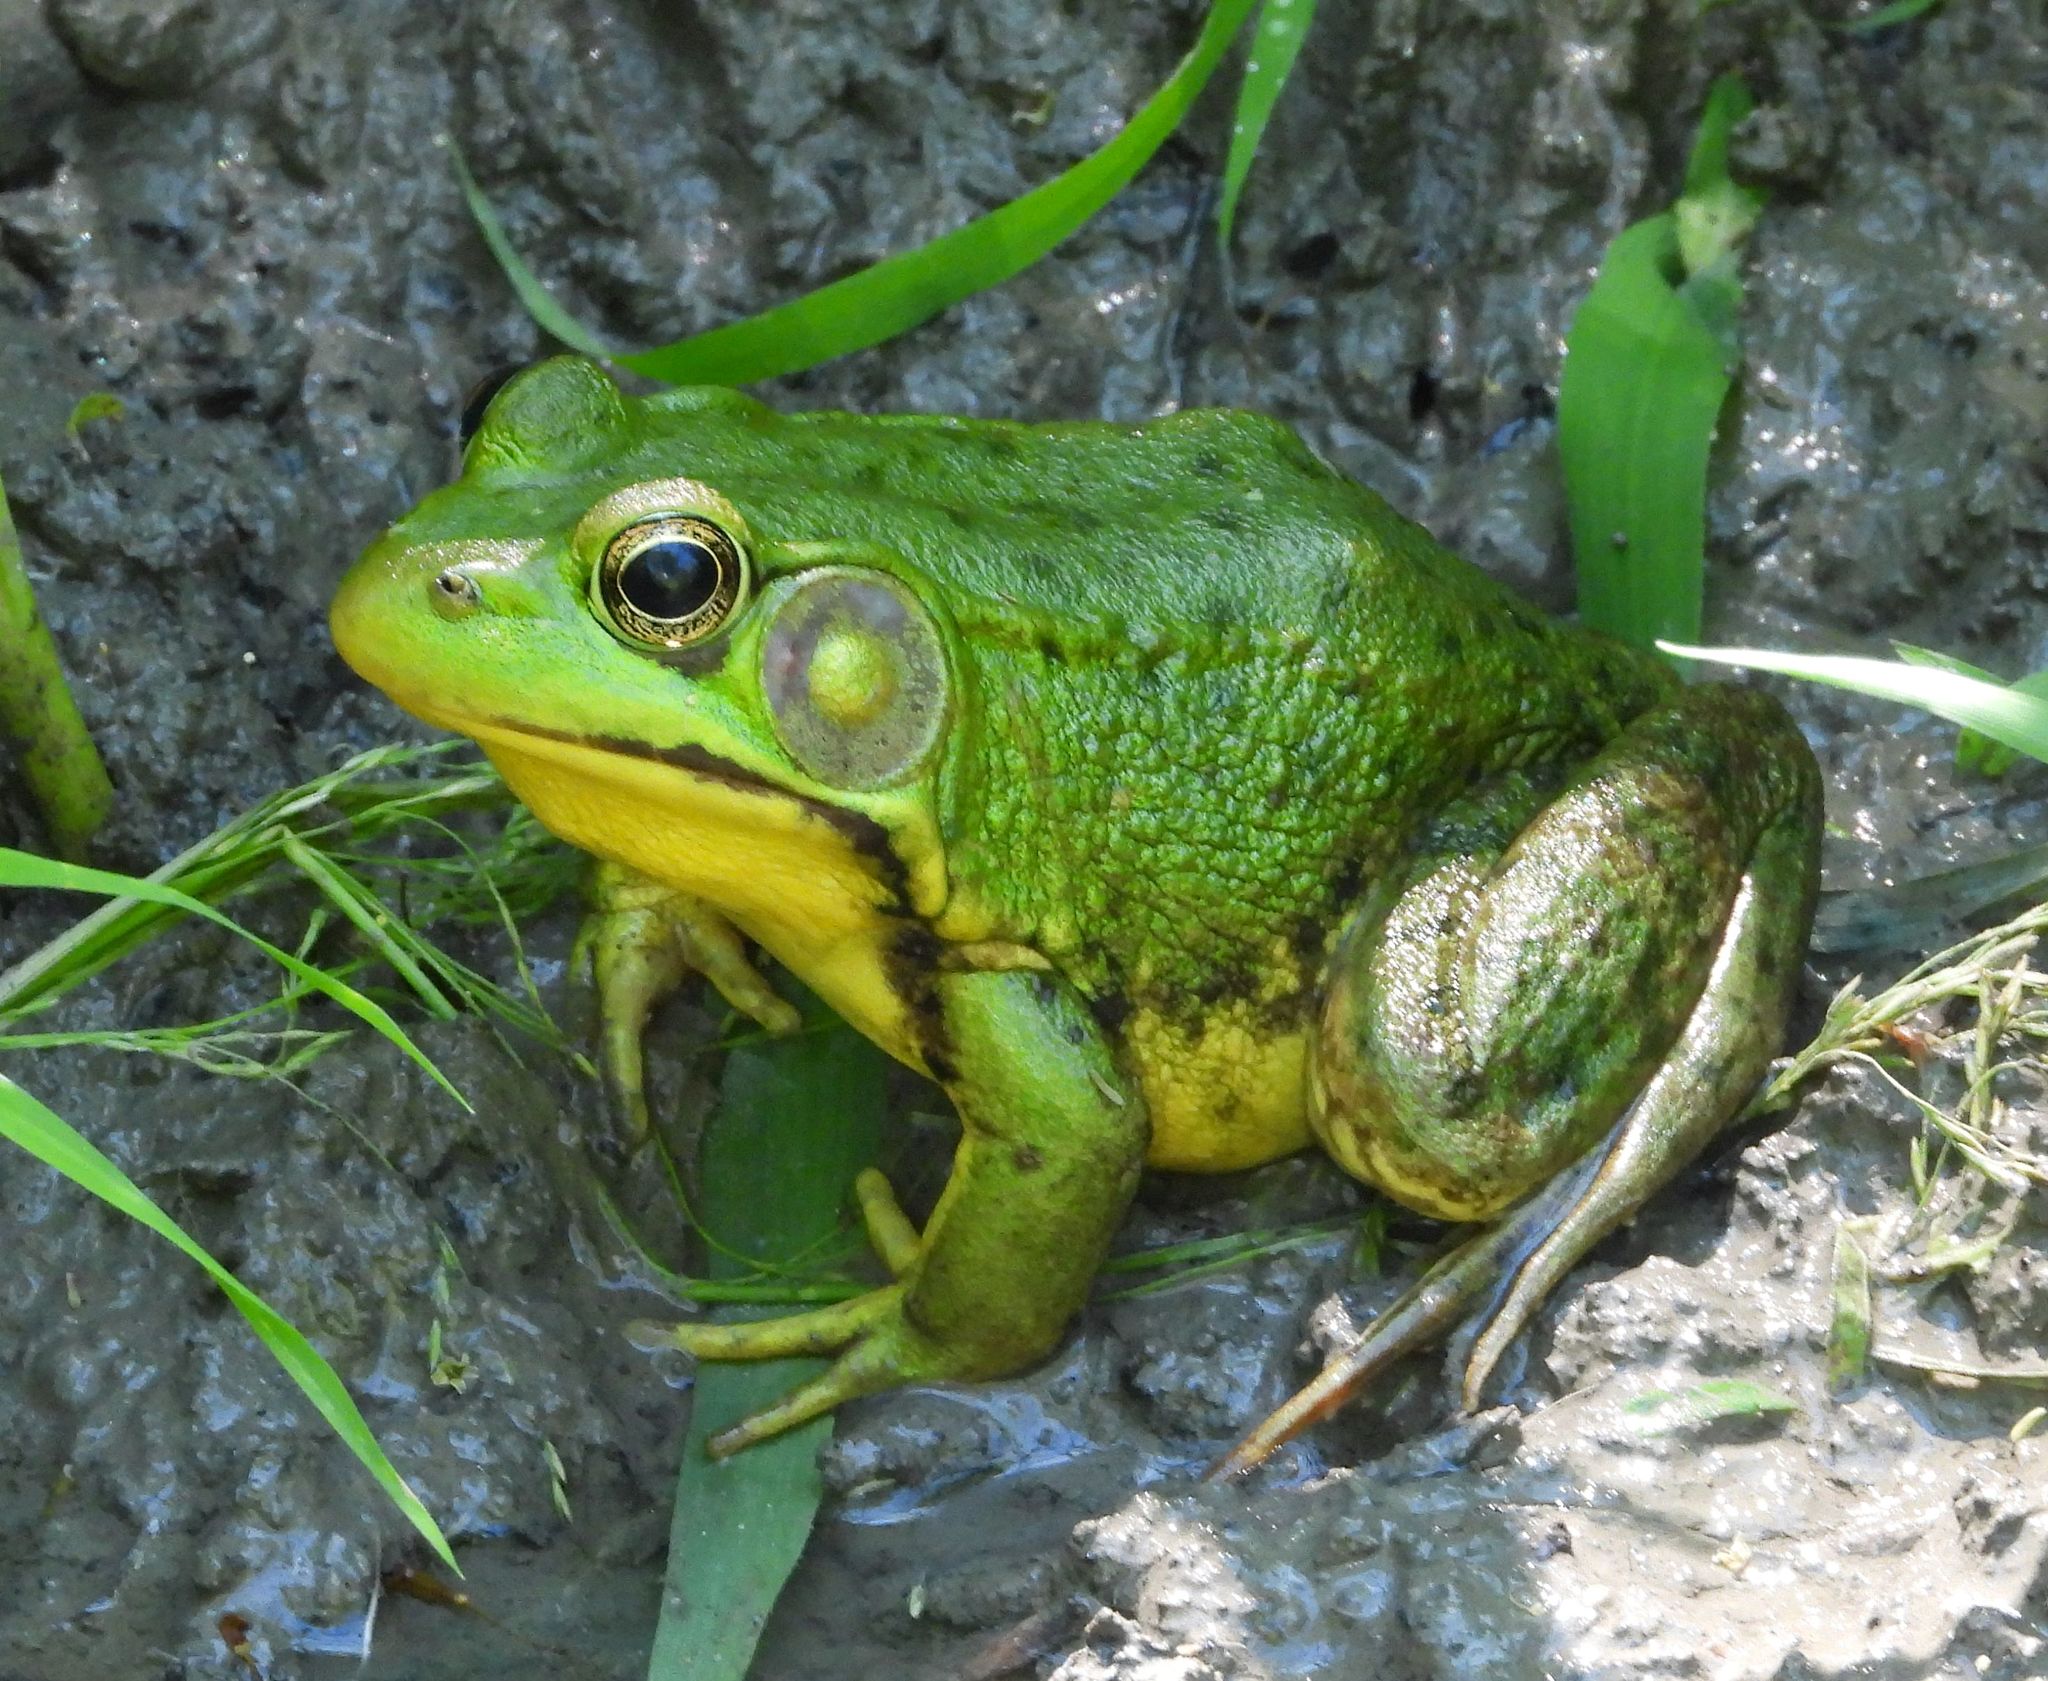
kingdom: Animalia
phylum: Chordata
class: Amphibia
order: Anura
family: Ranidae
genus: Lithobates
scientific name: Lithobates clamitans
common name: Green frog
